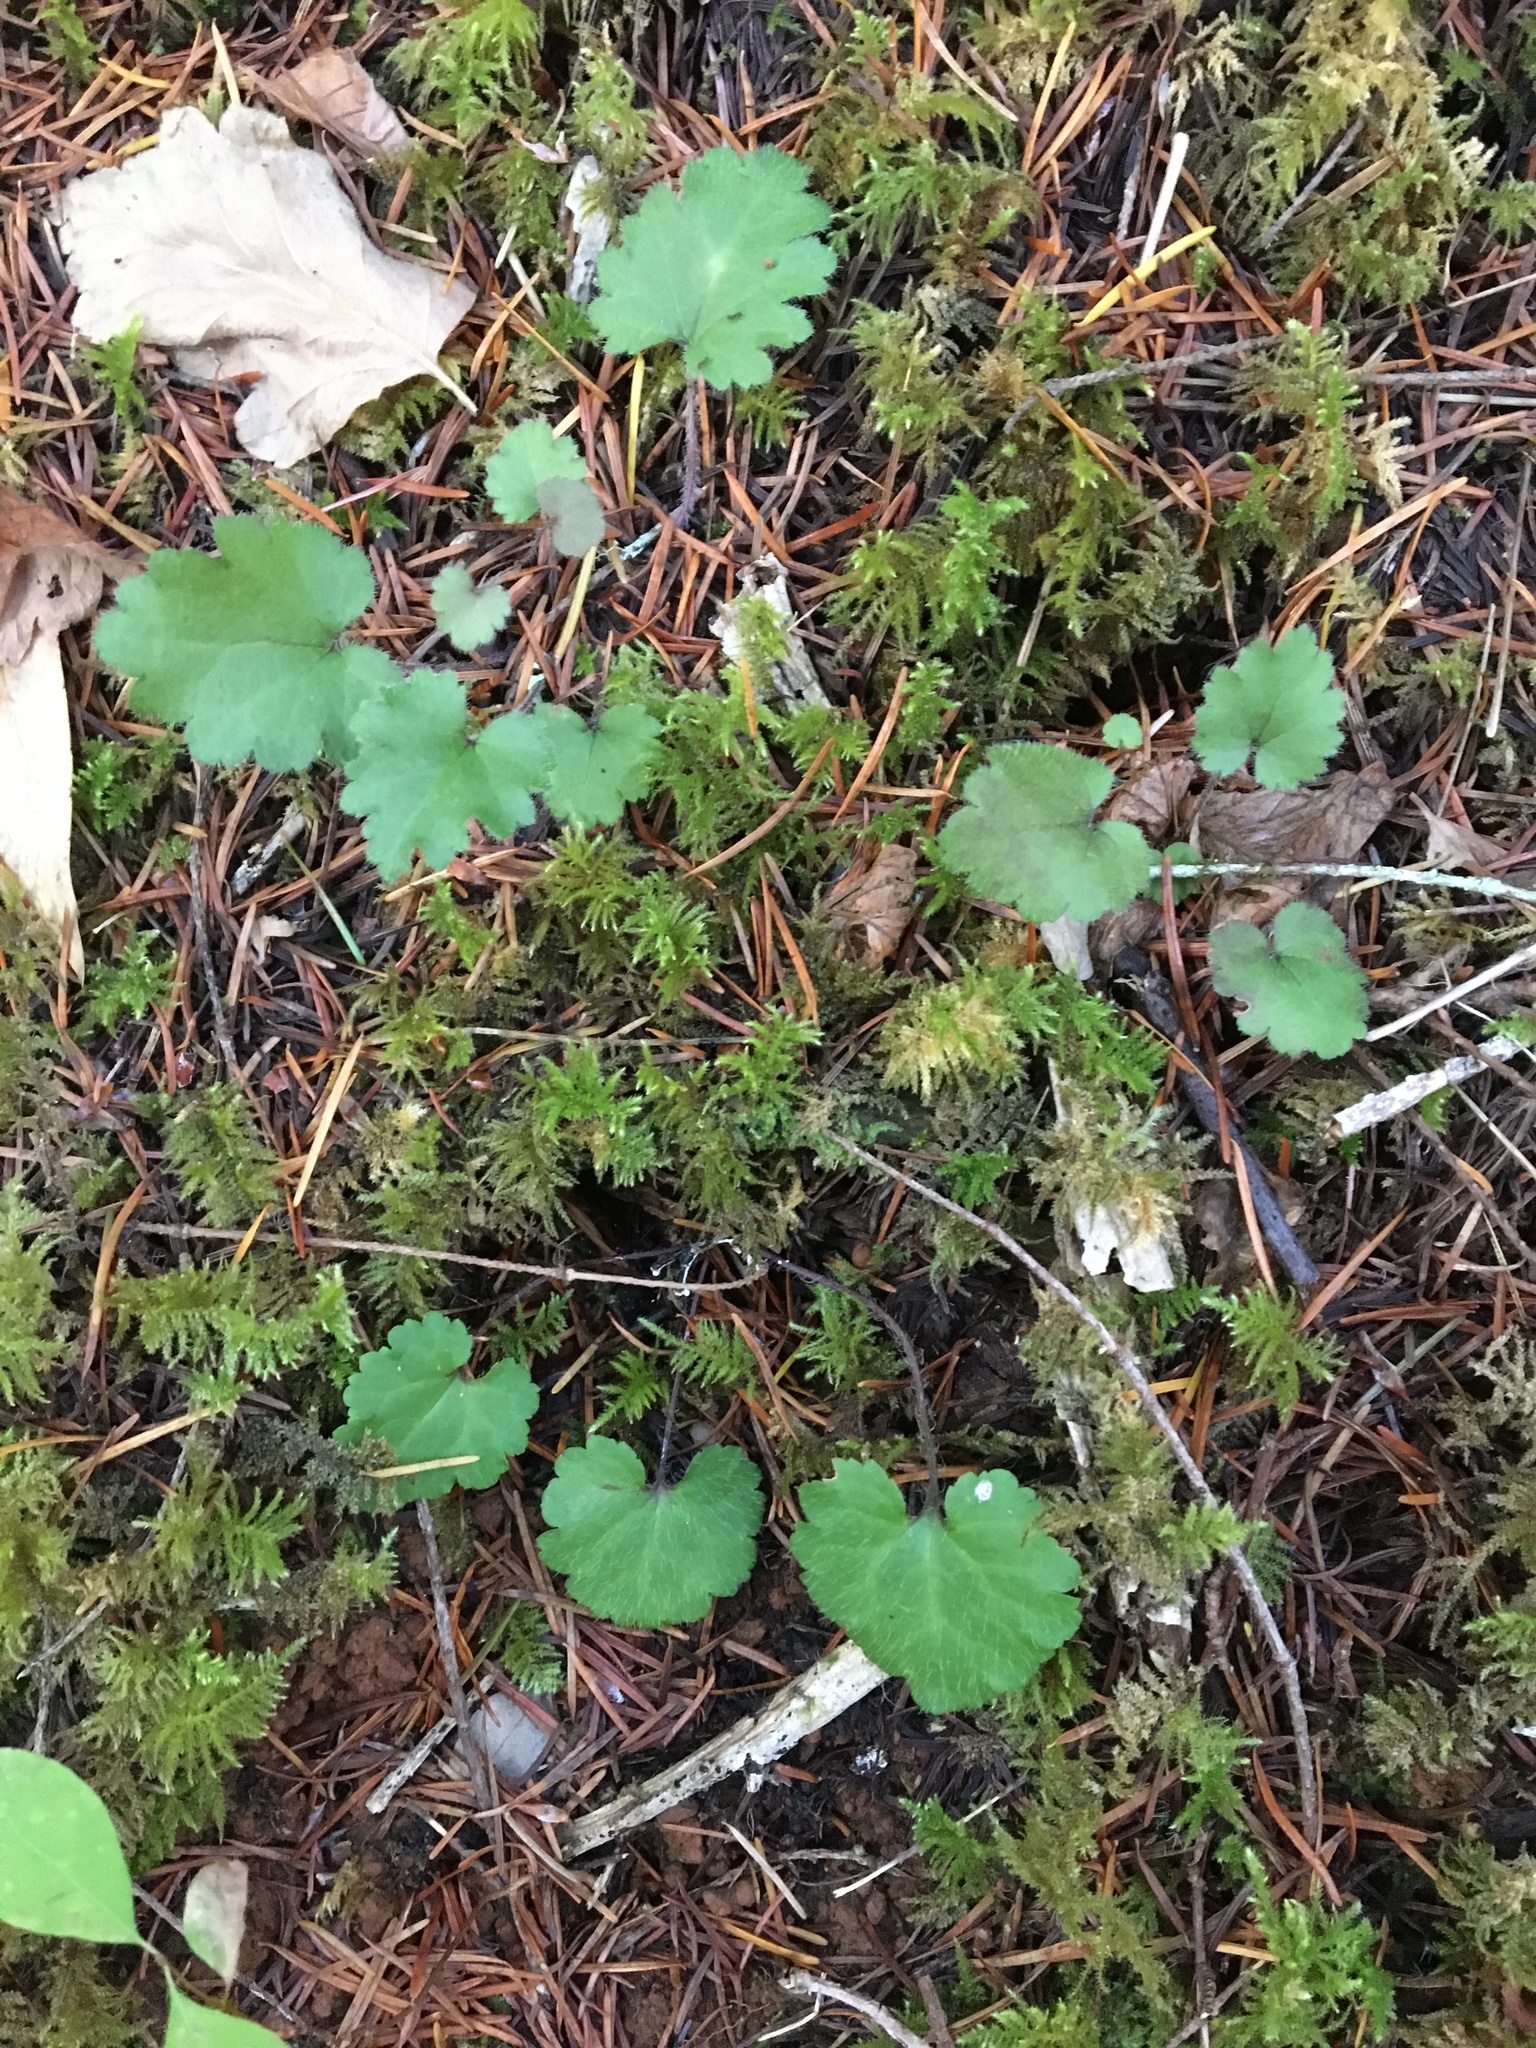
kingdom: Plantae
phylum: Tracheophyta
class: Magnoliopsida
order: Lamiales
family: Plantaginaceae
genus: Synthyris
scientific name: Synthyris reniformis
